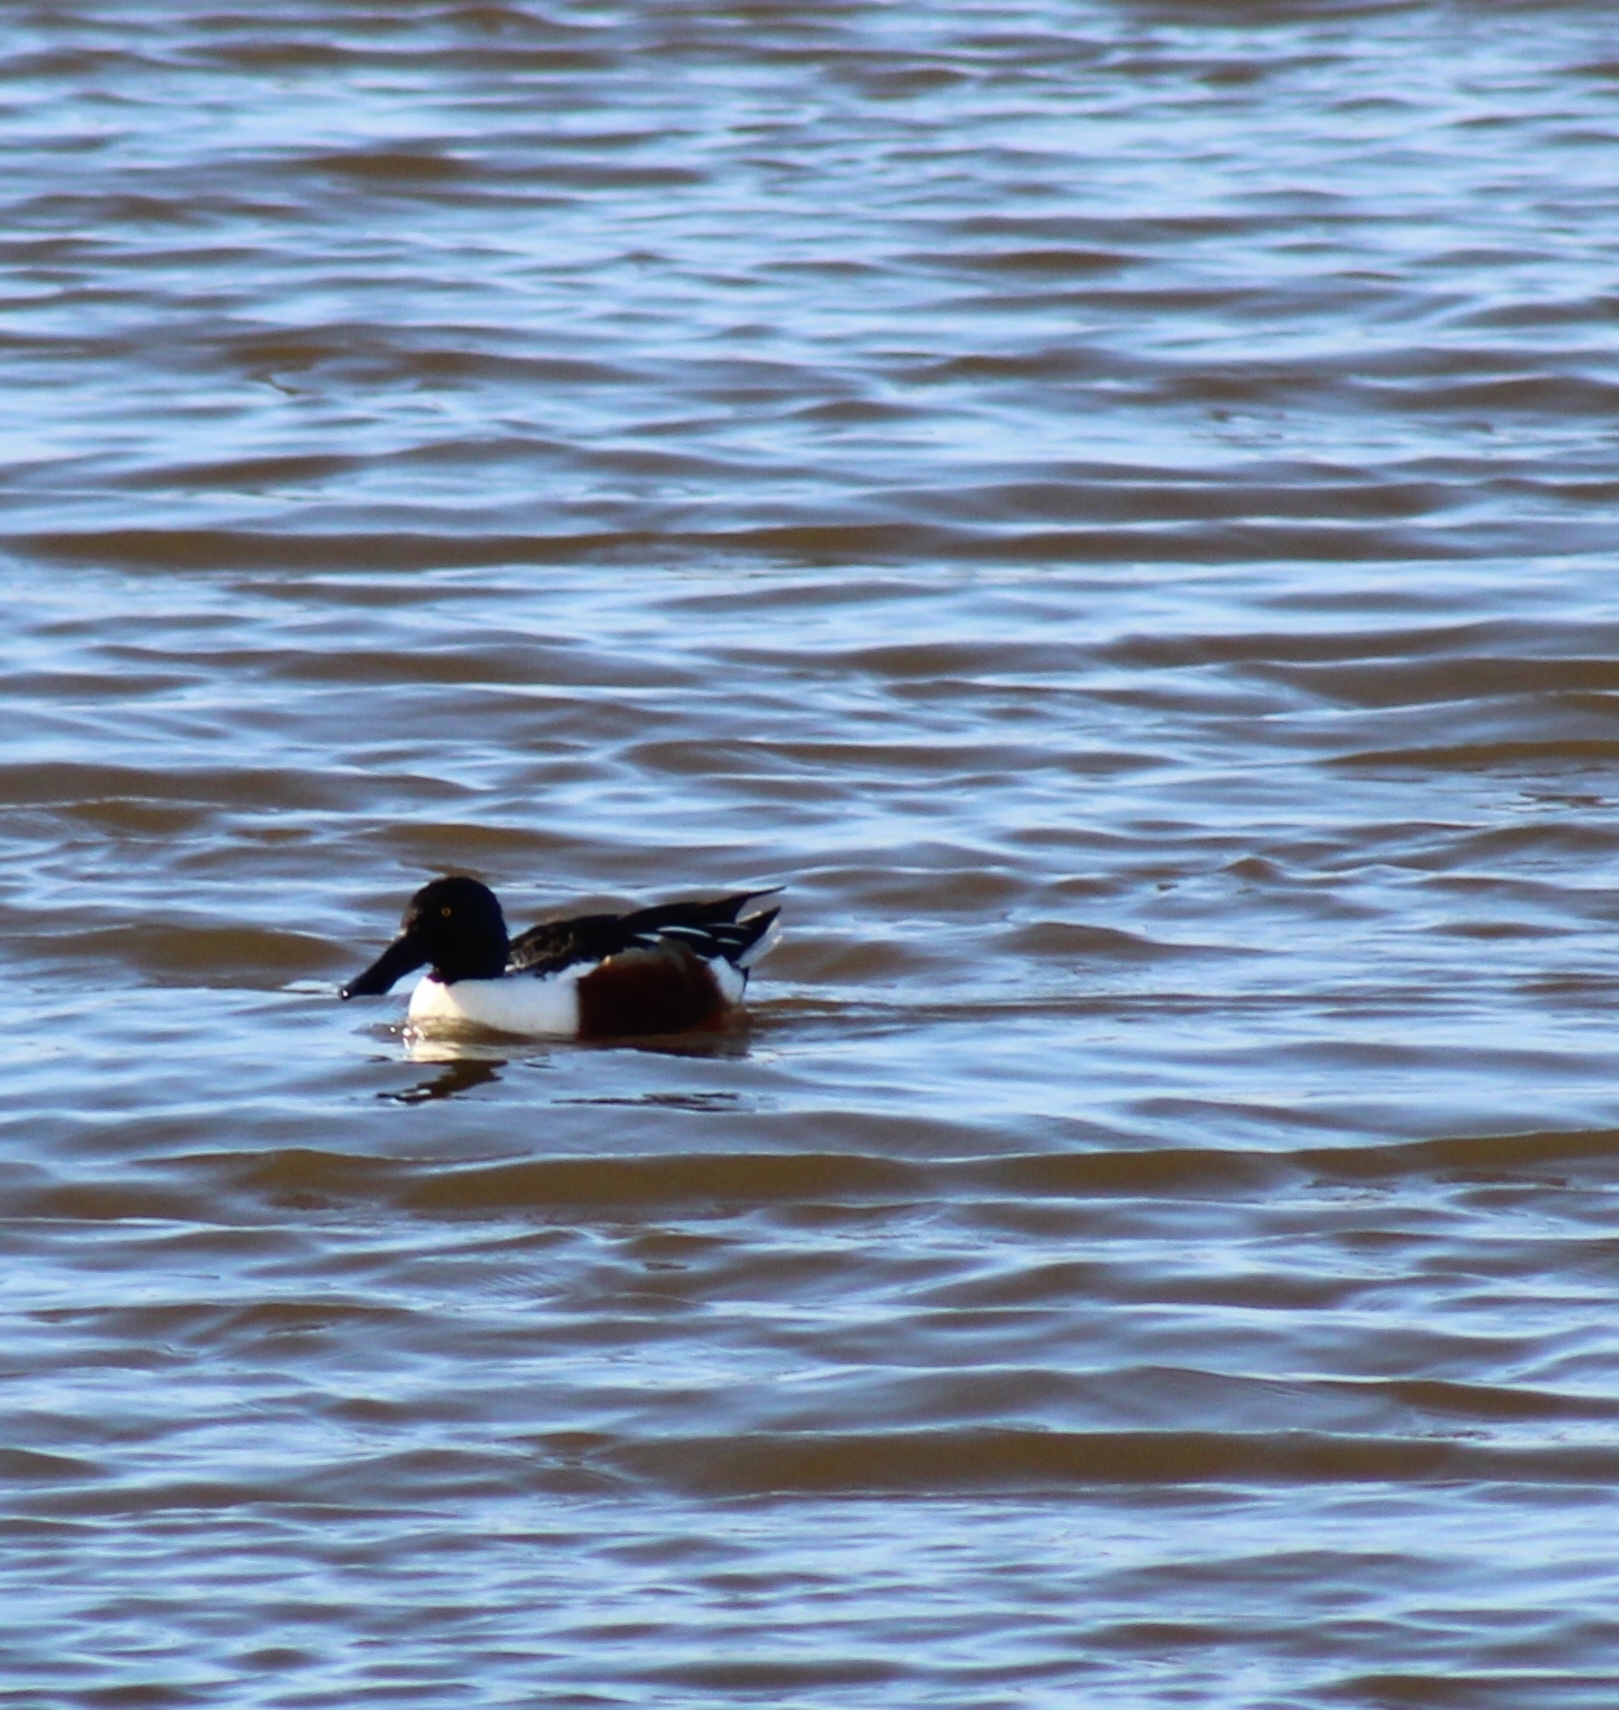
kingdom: Animalia
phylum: Chordata
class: Aves
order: Anseriformes
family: Anatidae
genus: Spatula
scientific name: Spatula clypeata
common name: Northern shoveler
